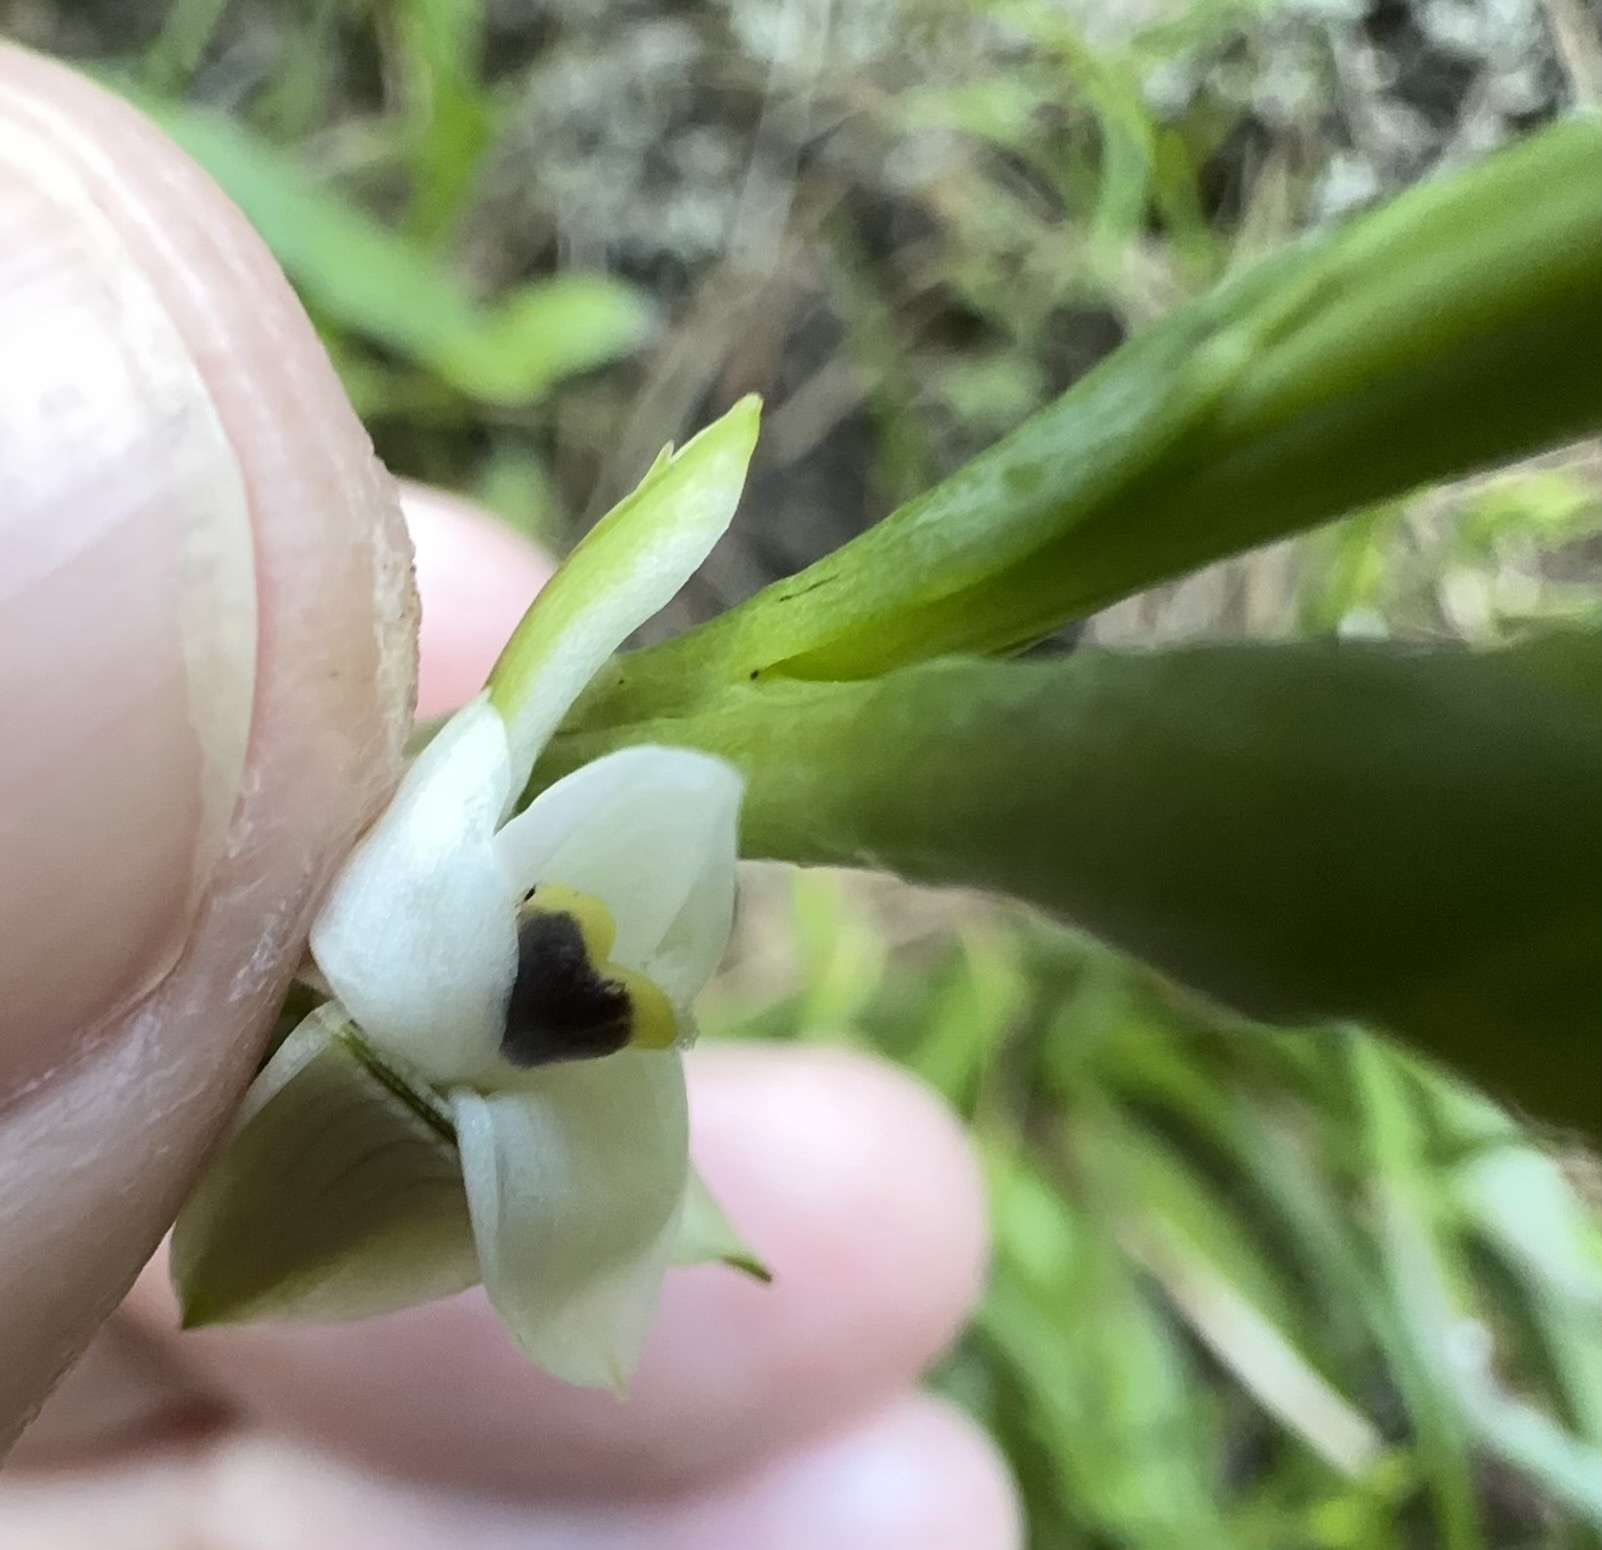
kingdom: Plantae
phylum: Tracheophyta
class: Liliopsida
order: Asparagales
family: Orchidaceae
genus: Thelymitra
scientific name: Thelymitra longifolia
